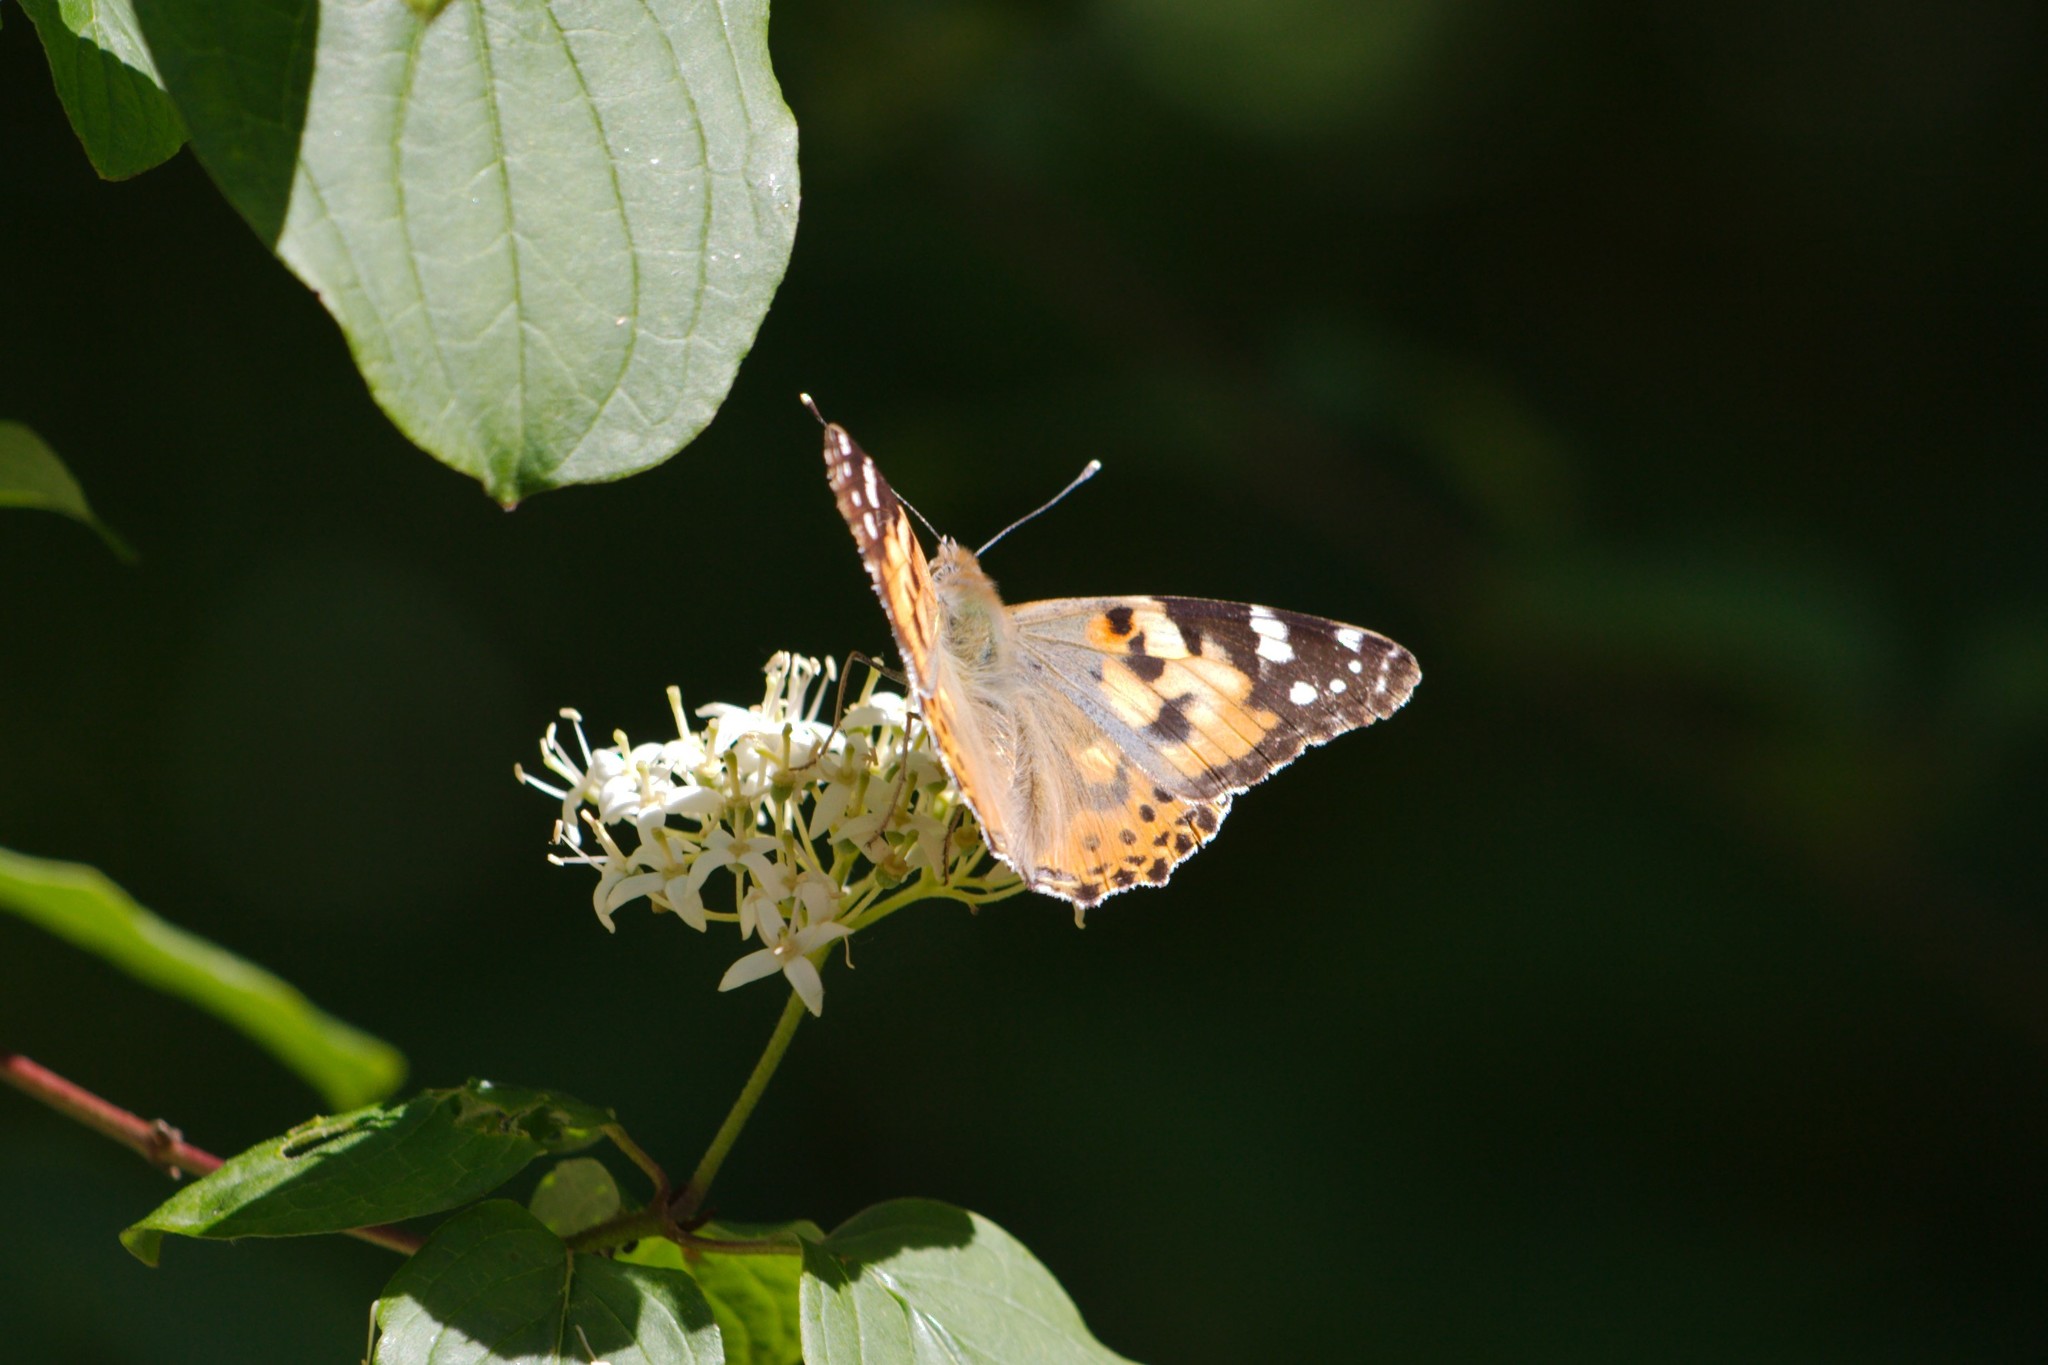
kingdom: Animalia
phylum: Arthropoda
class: Insecta
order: Lepidoptera
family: Nymphalidae
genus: Vanessa
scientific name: Vanessa cardui
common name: Painted lady
